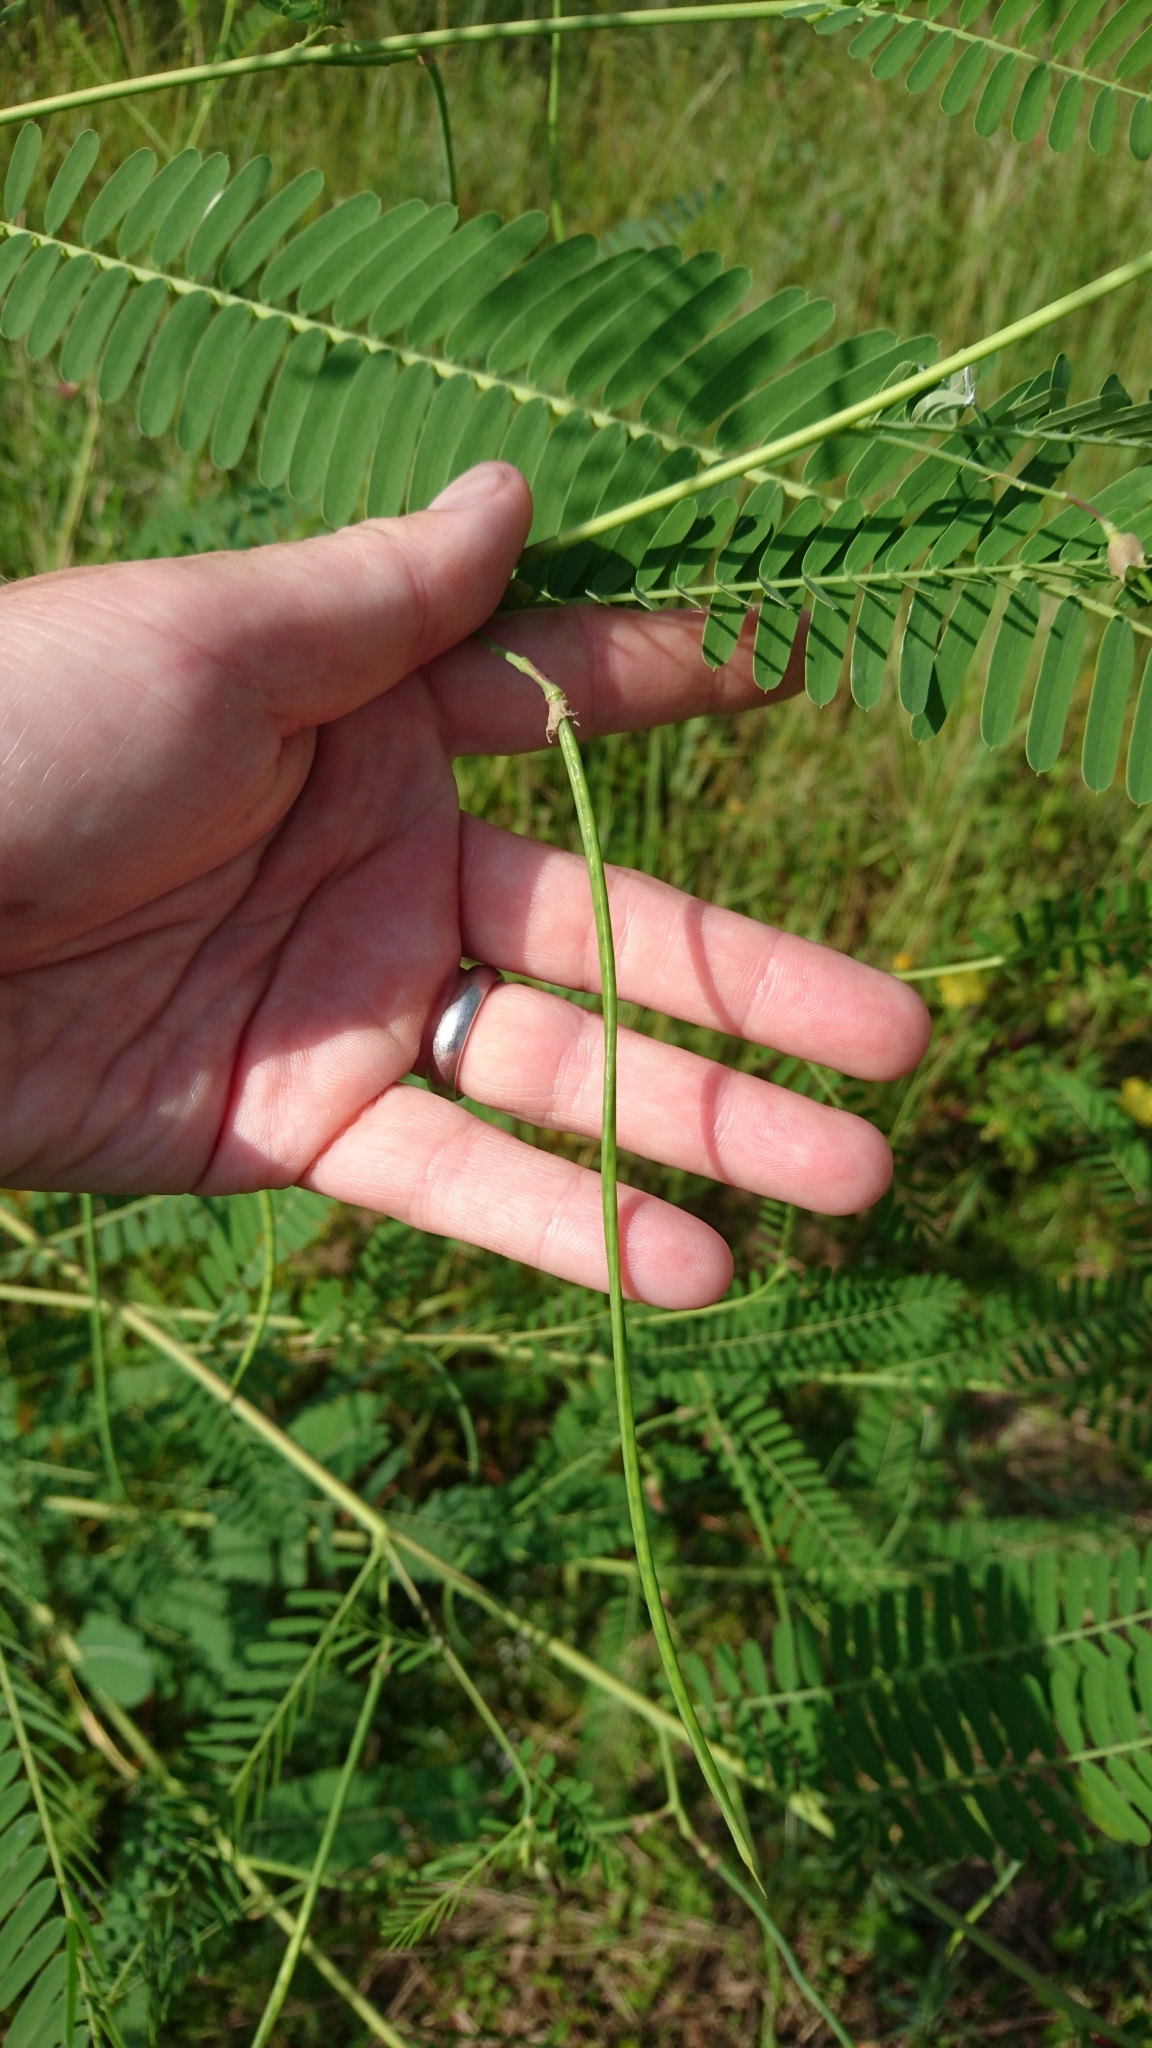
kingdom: Plantae
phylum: Tracheophyta
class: Magnoliopsida
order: Fabales
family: Fabaceae
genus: Sesbania
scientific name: Sesbania herbacea
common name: Bigpod sesbania
